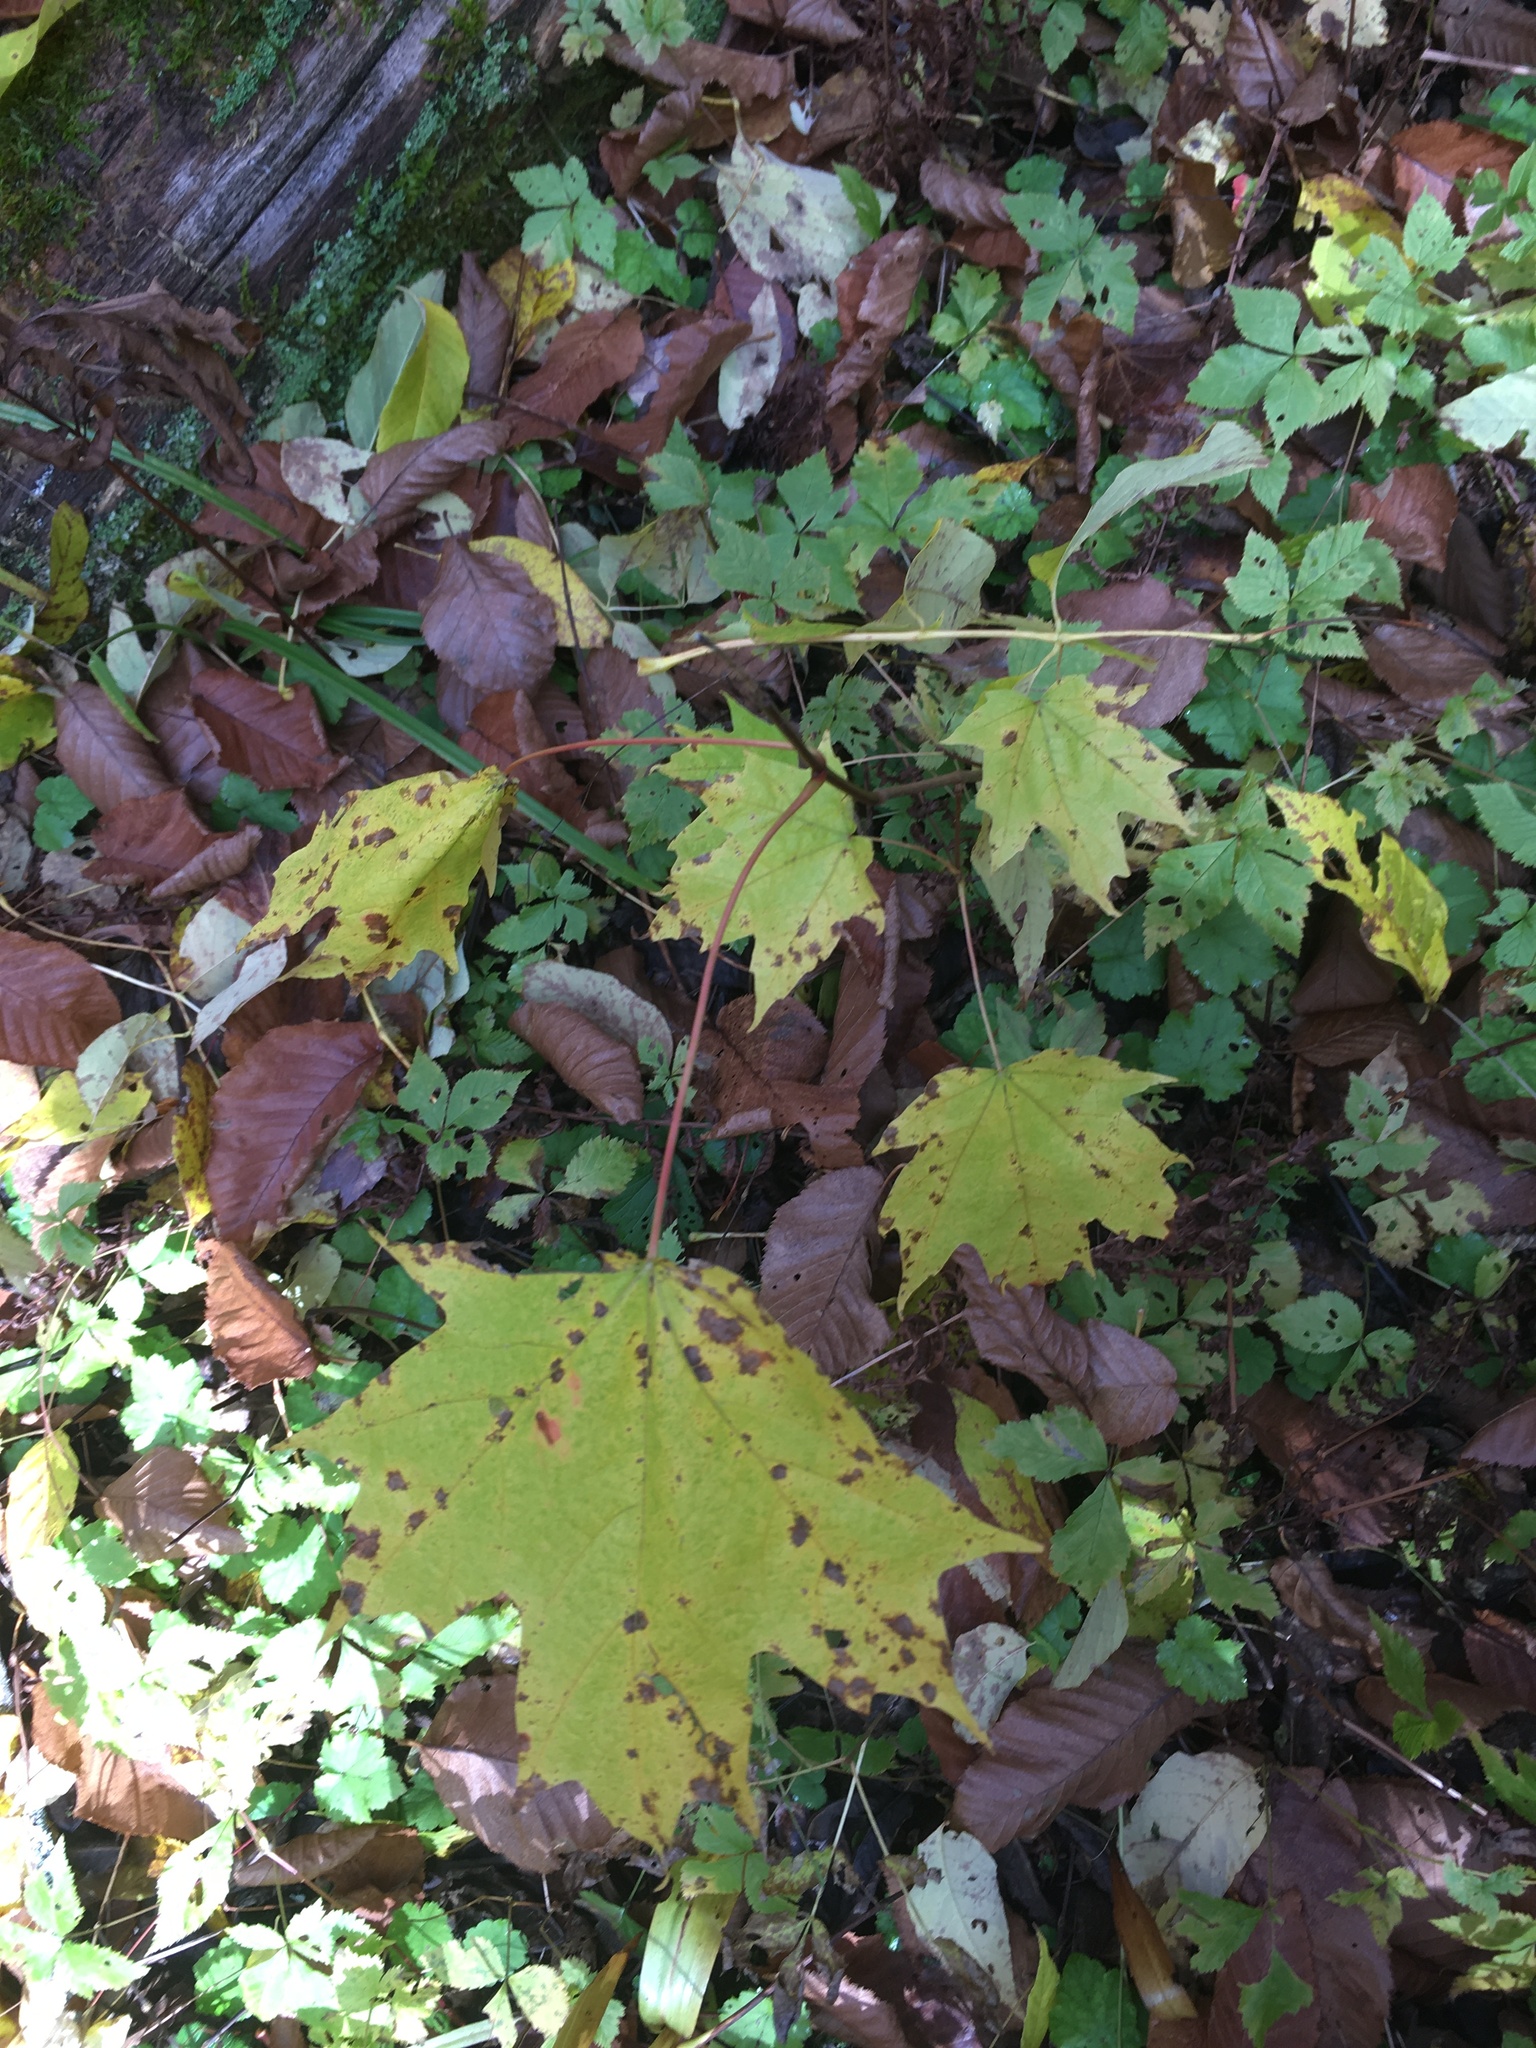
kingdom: Plantae
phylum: Tracheophyta
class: Magnoliopsida
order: Sapindales
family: Sapindaceae
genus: Acer
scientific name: Acer saccharum
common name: Sugar maple
